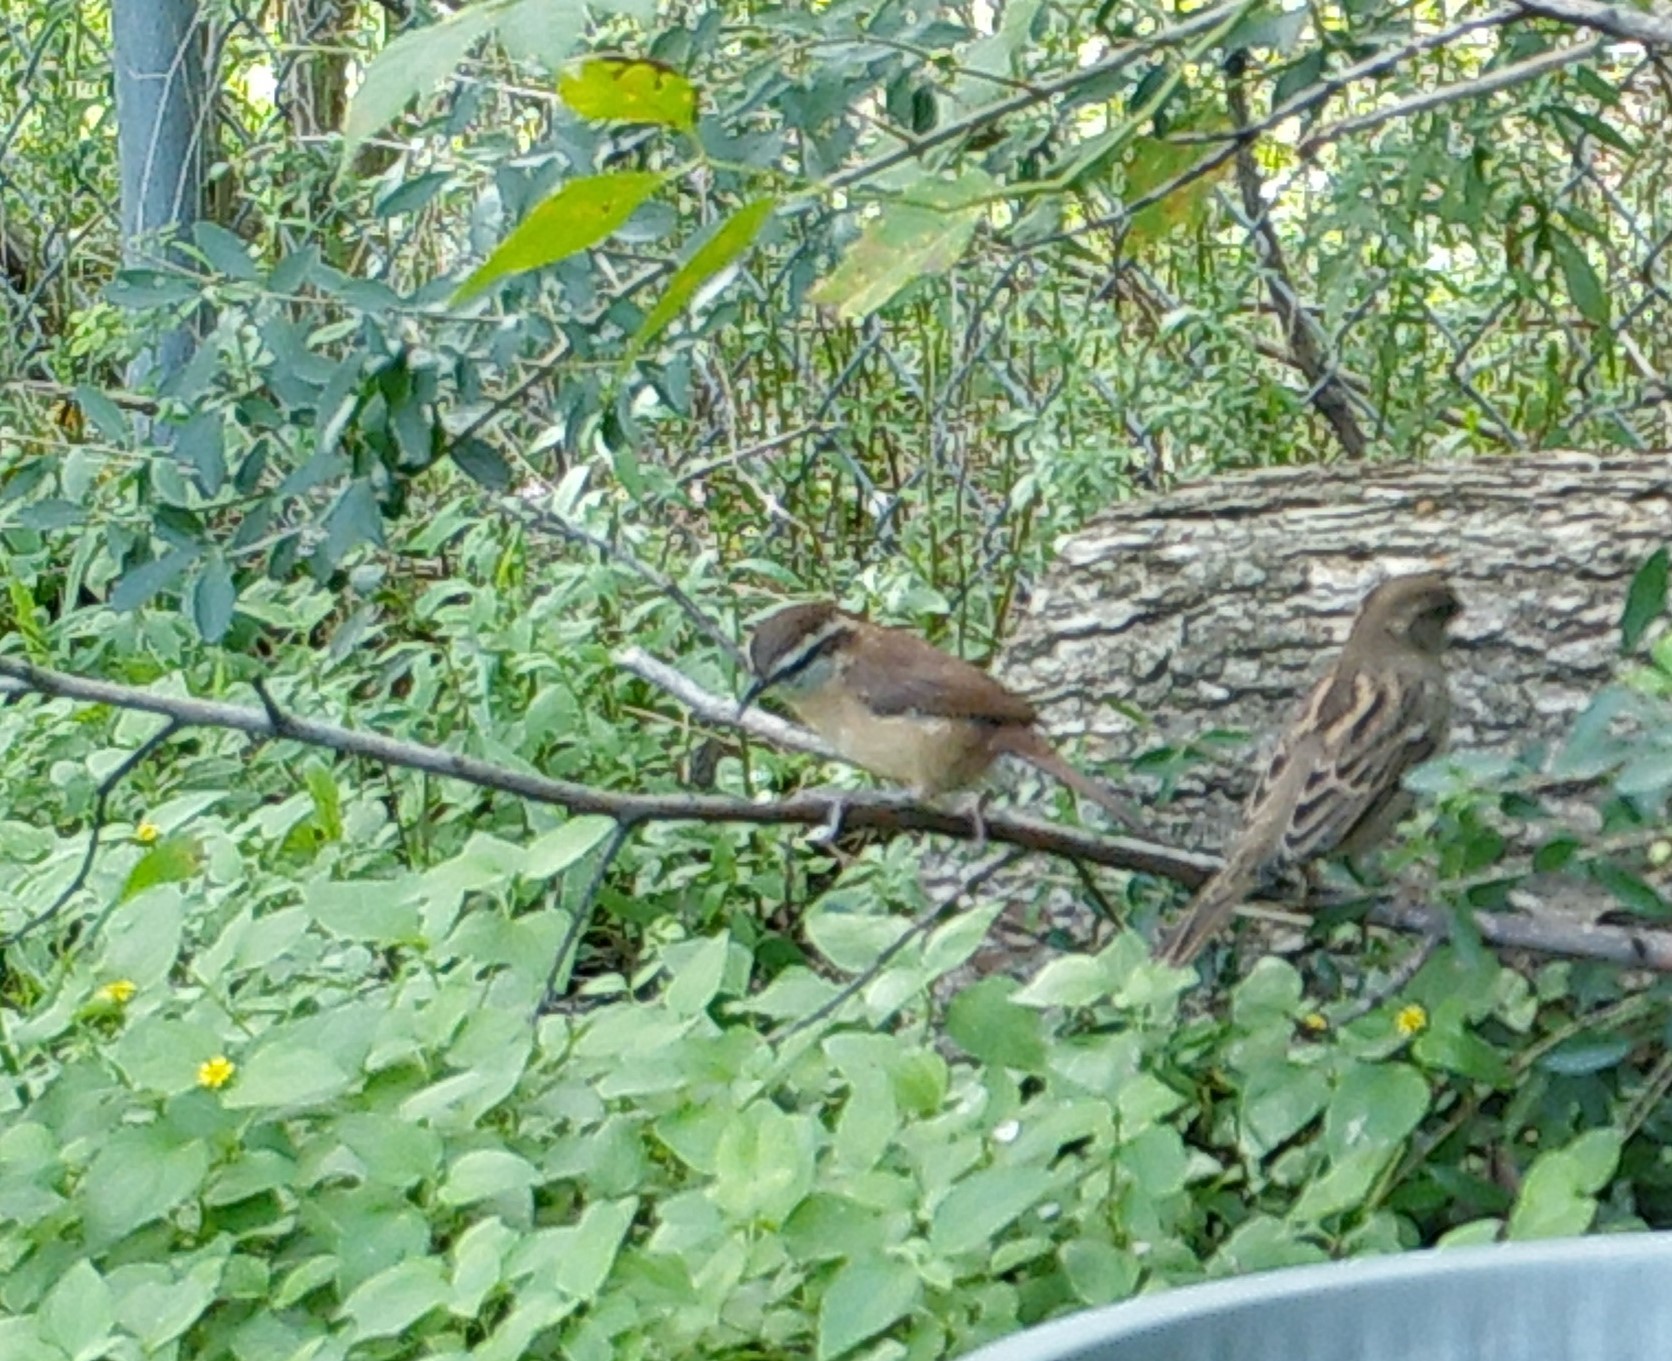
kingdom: Animalia
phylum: Chordata
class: Aves
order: Passeriformes
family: Troglodytidae
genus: Thryothorus
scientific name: Thryothorus ludovicianus
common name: Carolina wren
